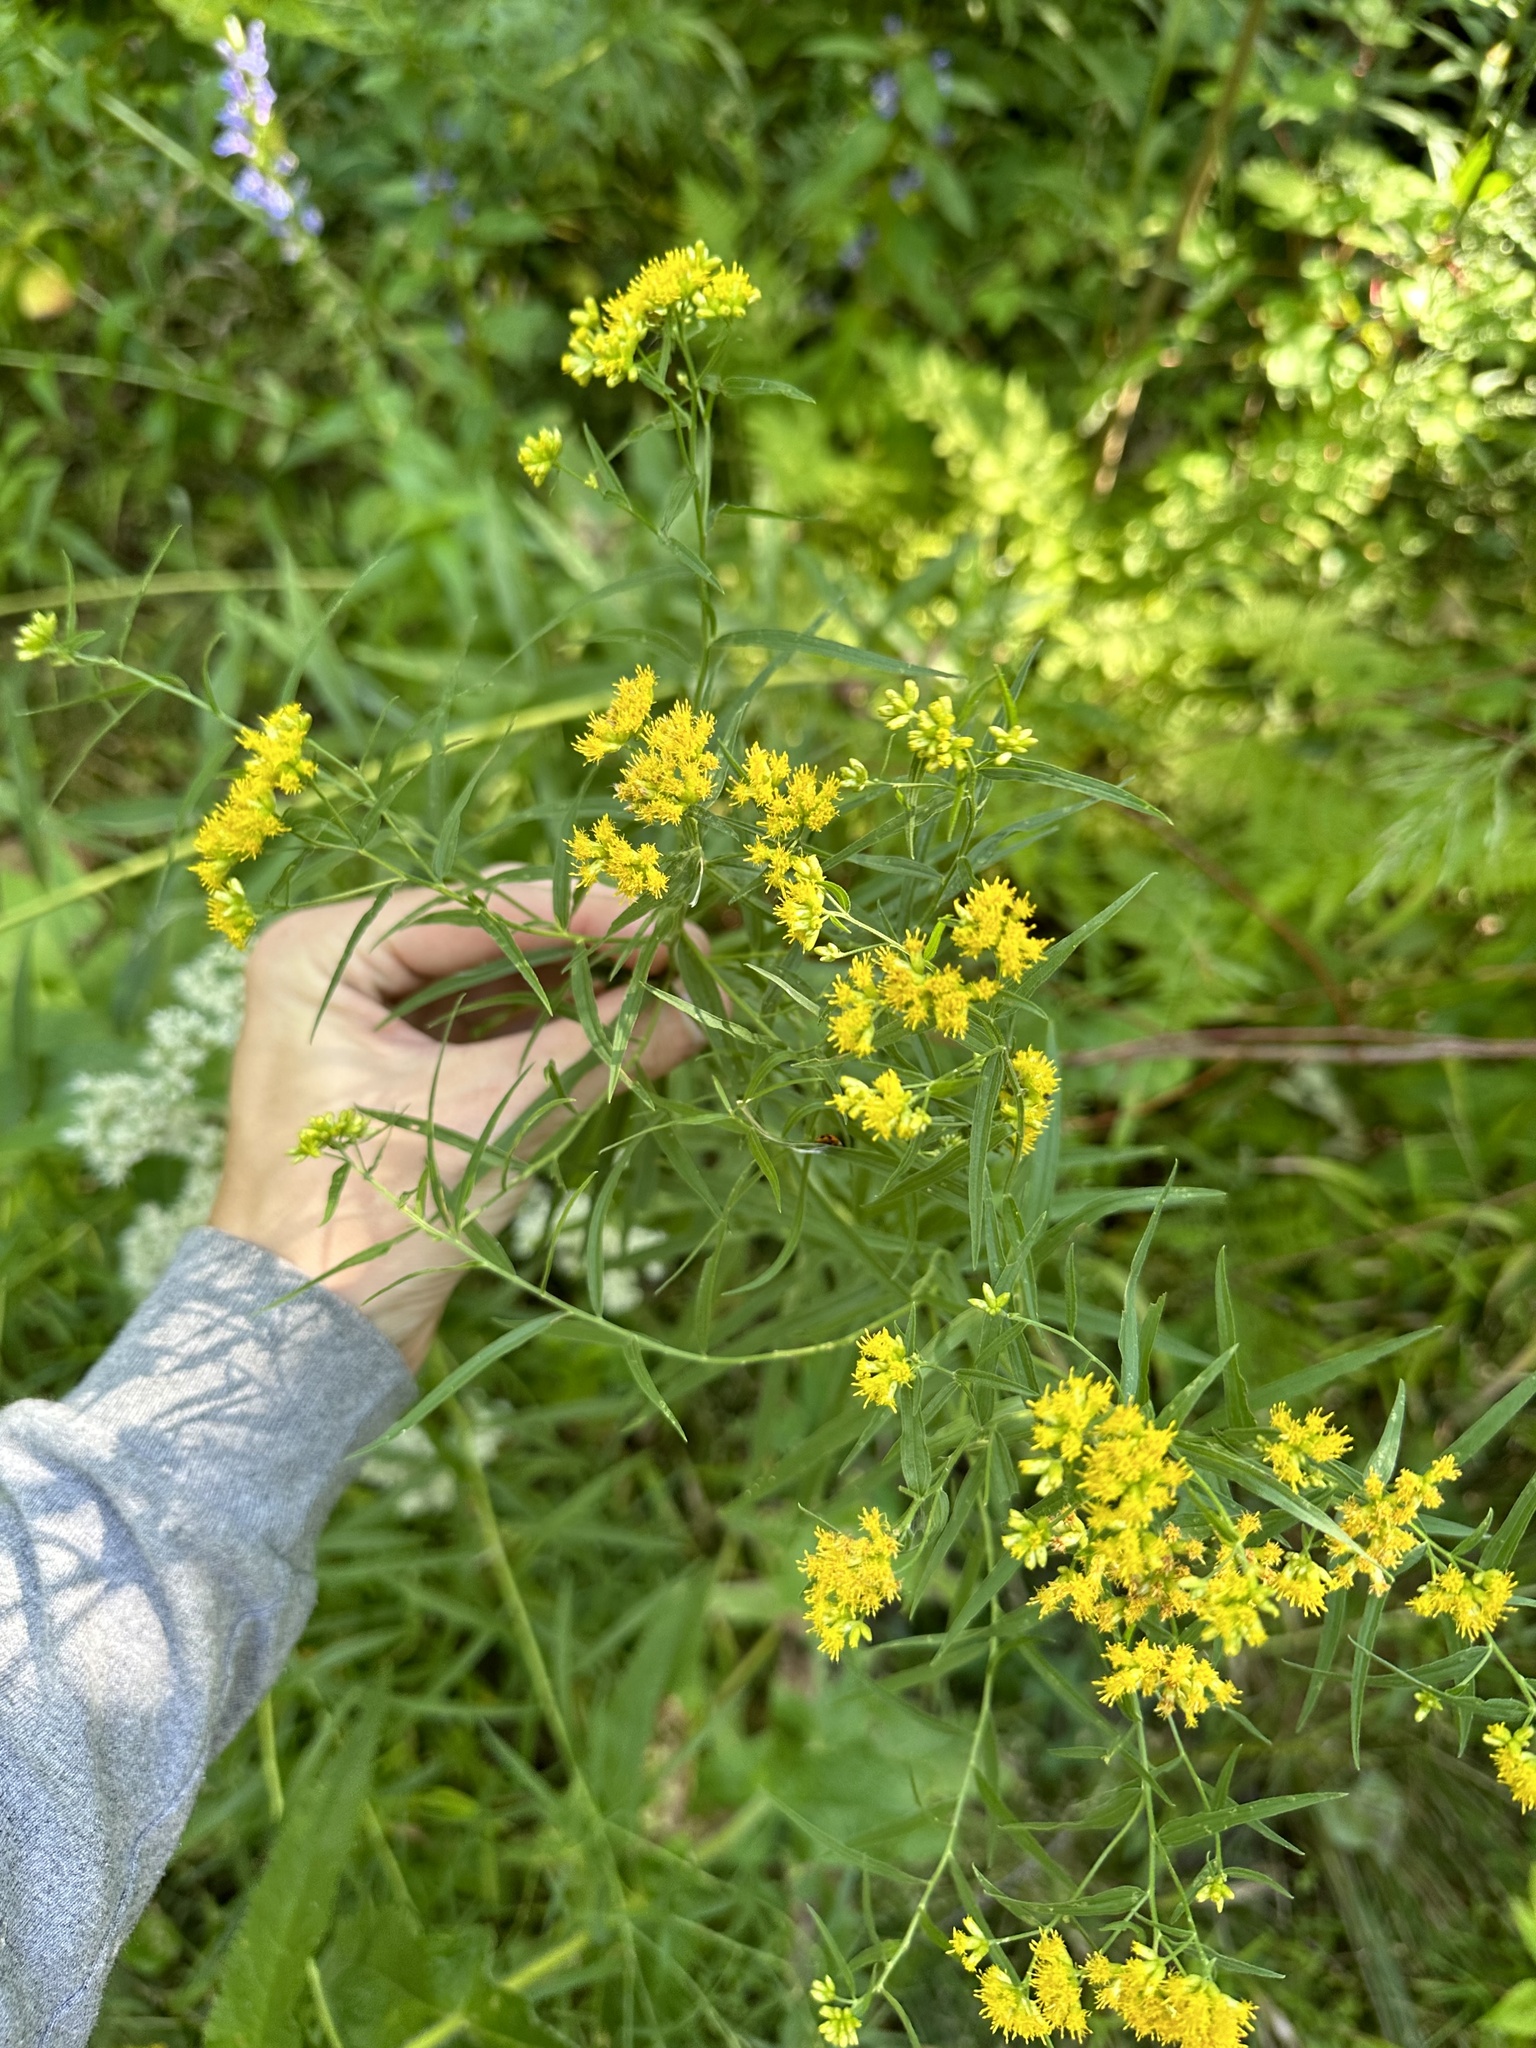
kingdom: Plantae
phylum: Tracheophyta
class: Magnoliopsida
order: Asterales
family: Asteraceae
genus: Euthamia
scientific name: Euthamia graminifolia
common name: Common goldentop
